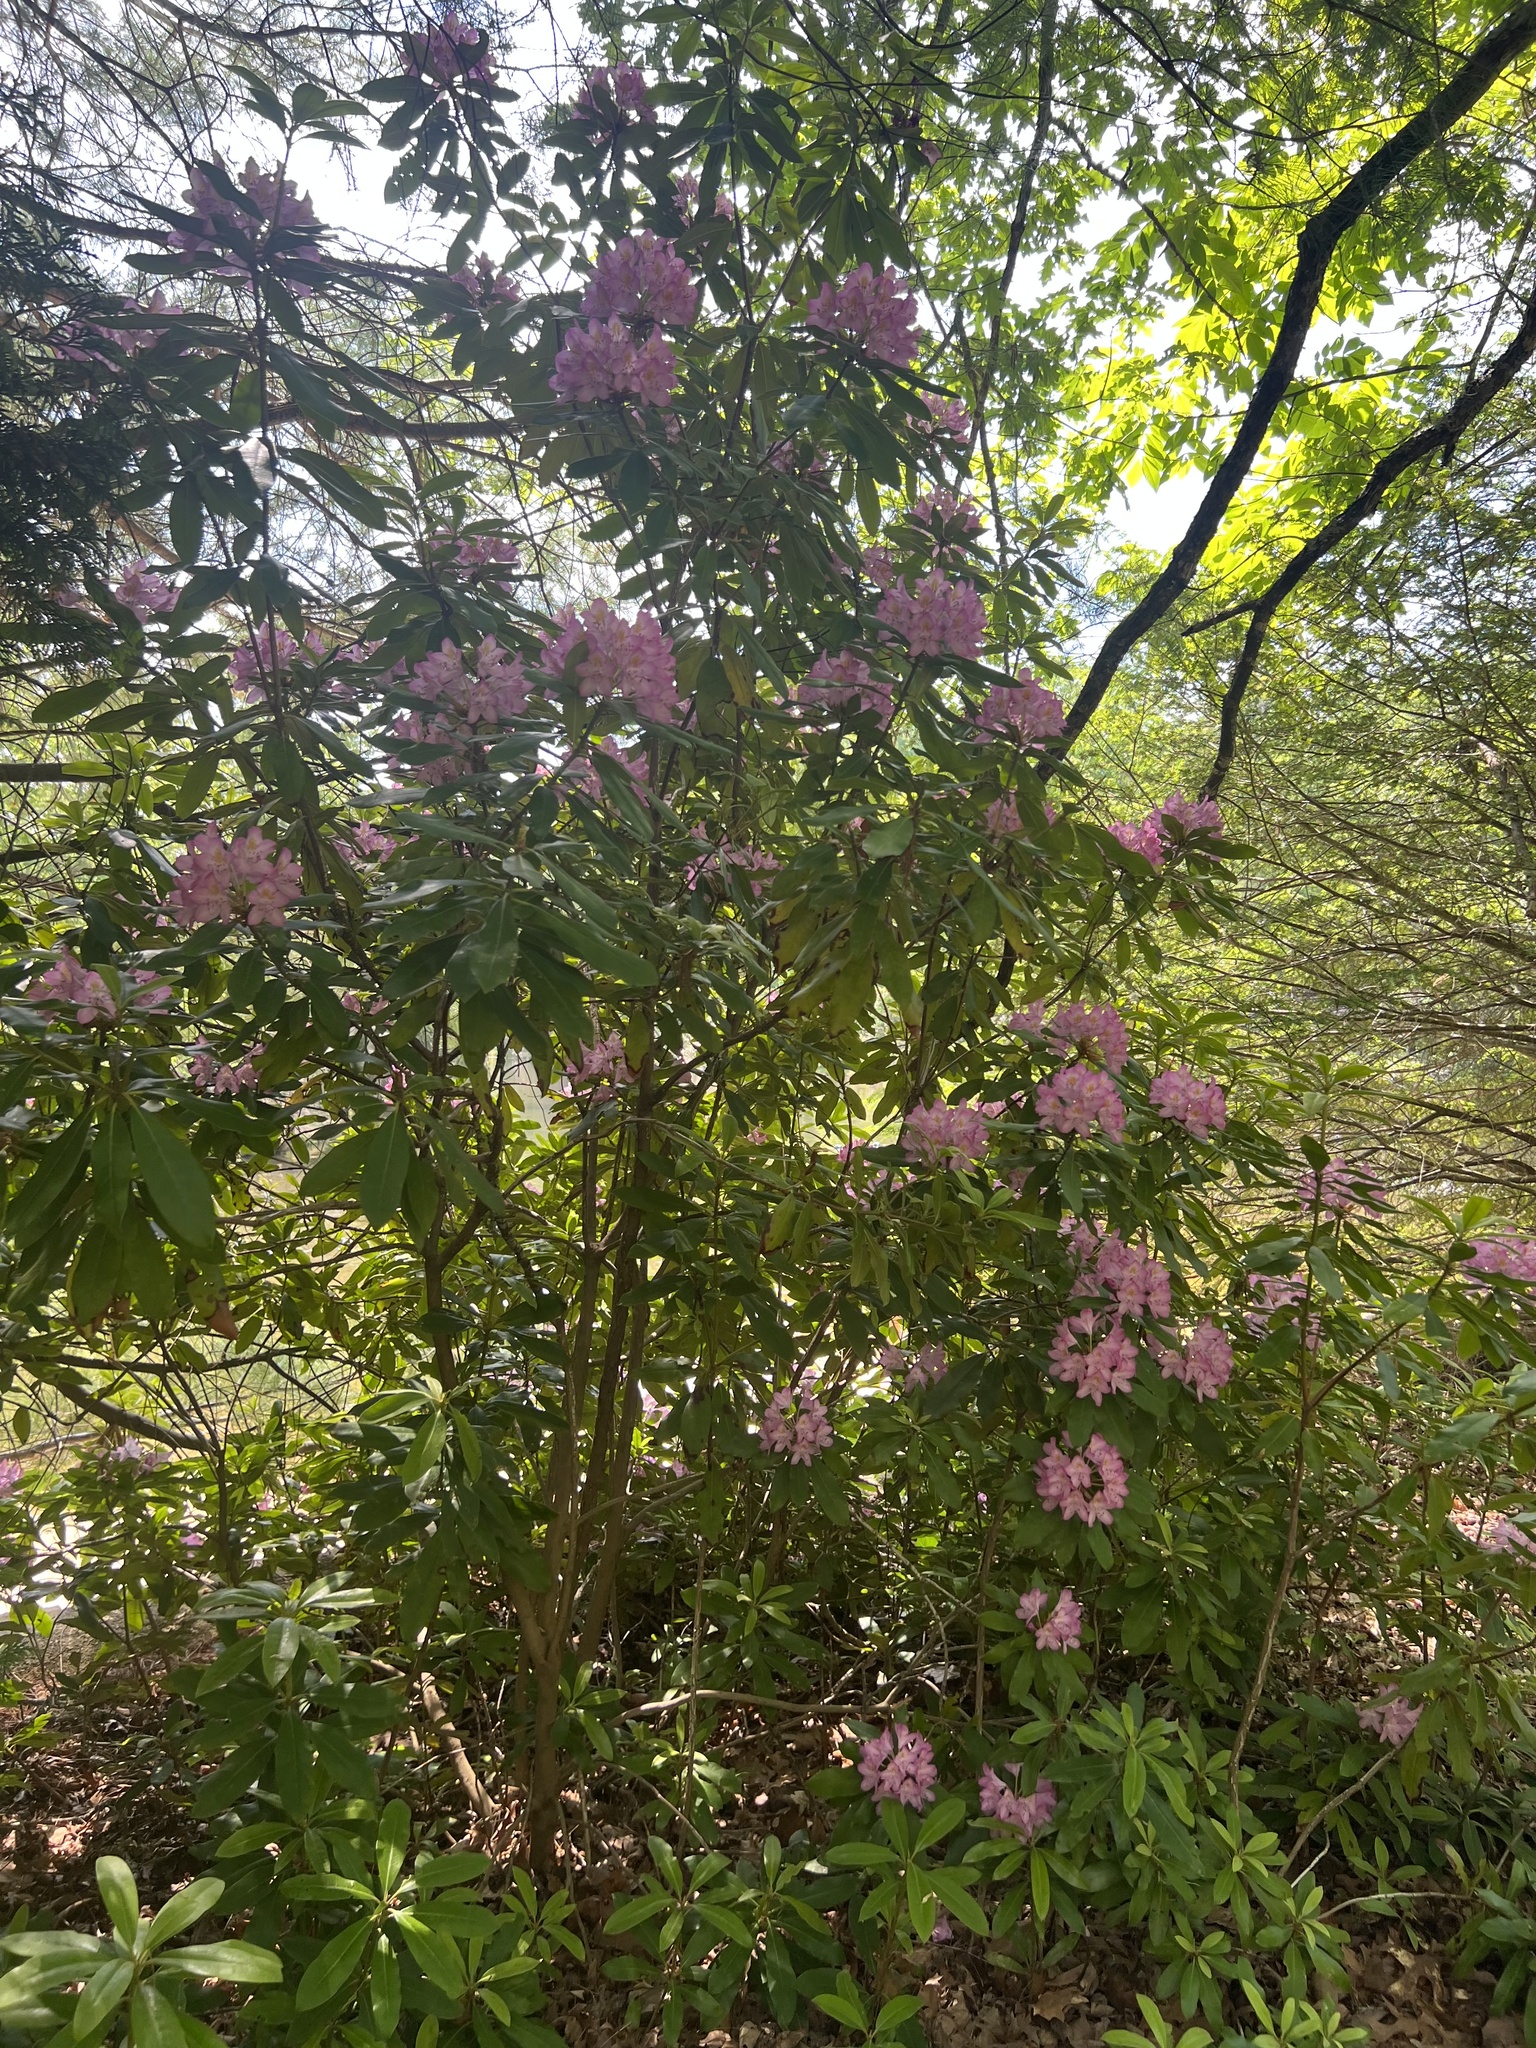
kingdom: Plantae
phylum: Tracheophyta
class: Magnoliopsida
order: Ericales
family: Ericaceae
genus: Rhododendron
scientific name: Rhododendron catawbiense
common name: Catawba rhododendron
